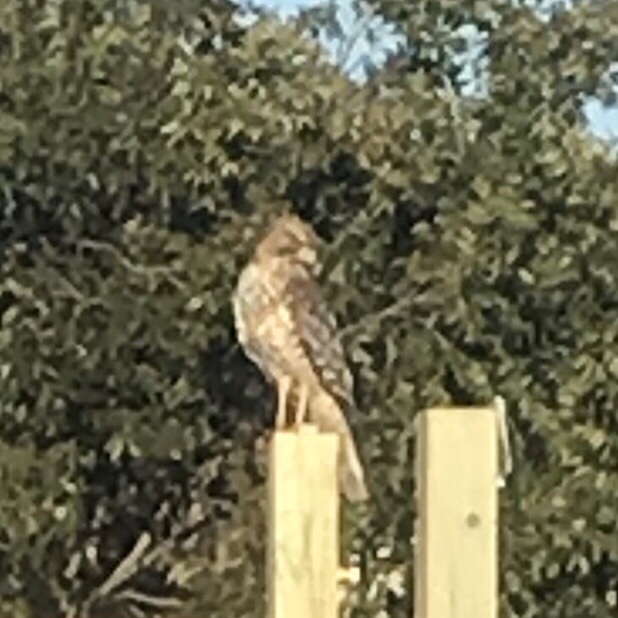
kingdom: Animalia
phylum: Chordata
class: Aves
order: Accipitriformes
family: Accipitridae
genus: Buteo
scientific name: Buteo lineatus
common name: Red-shouldered hawk
